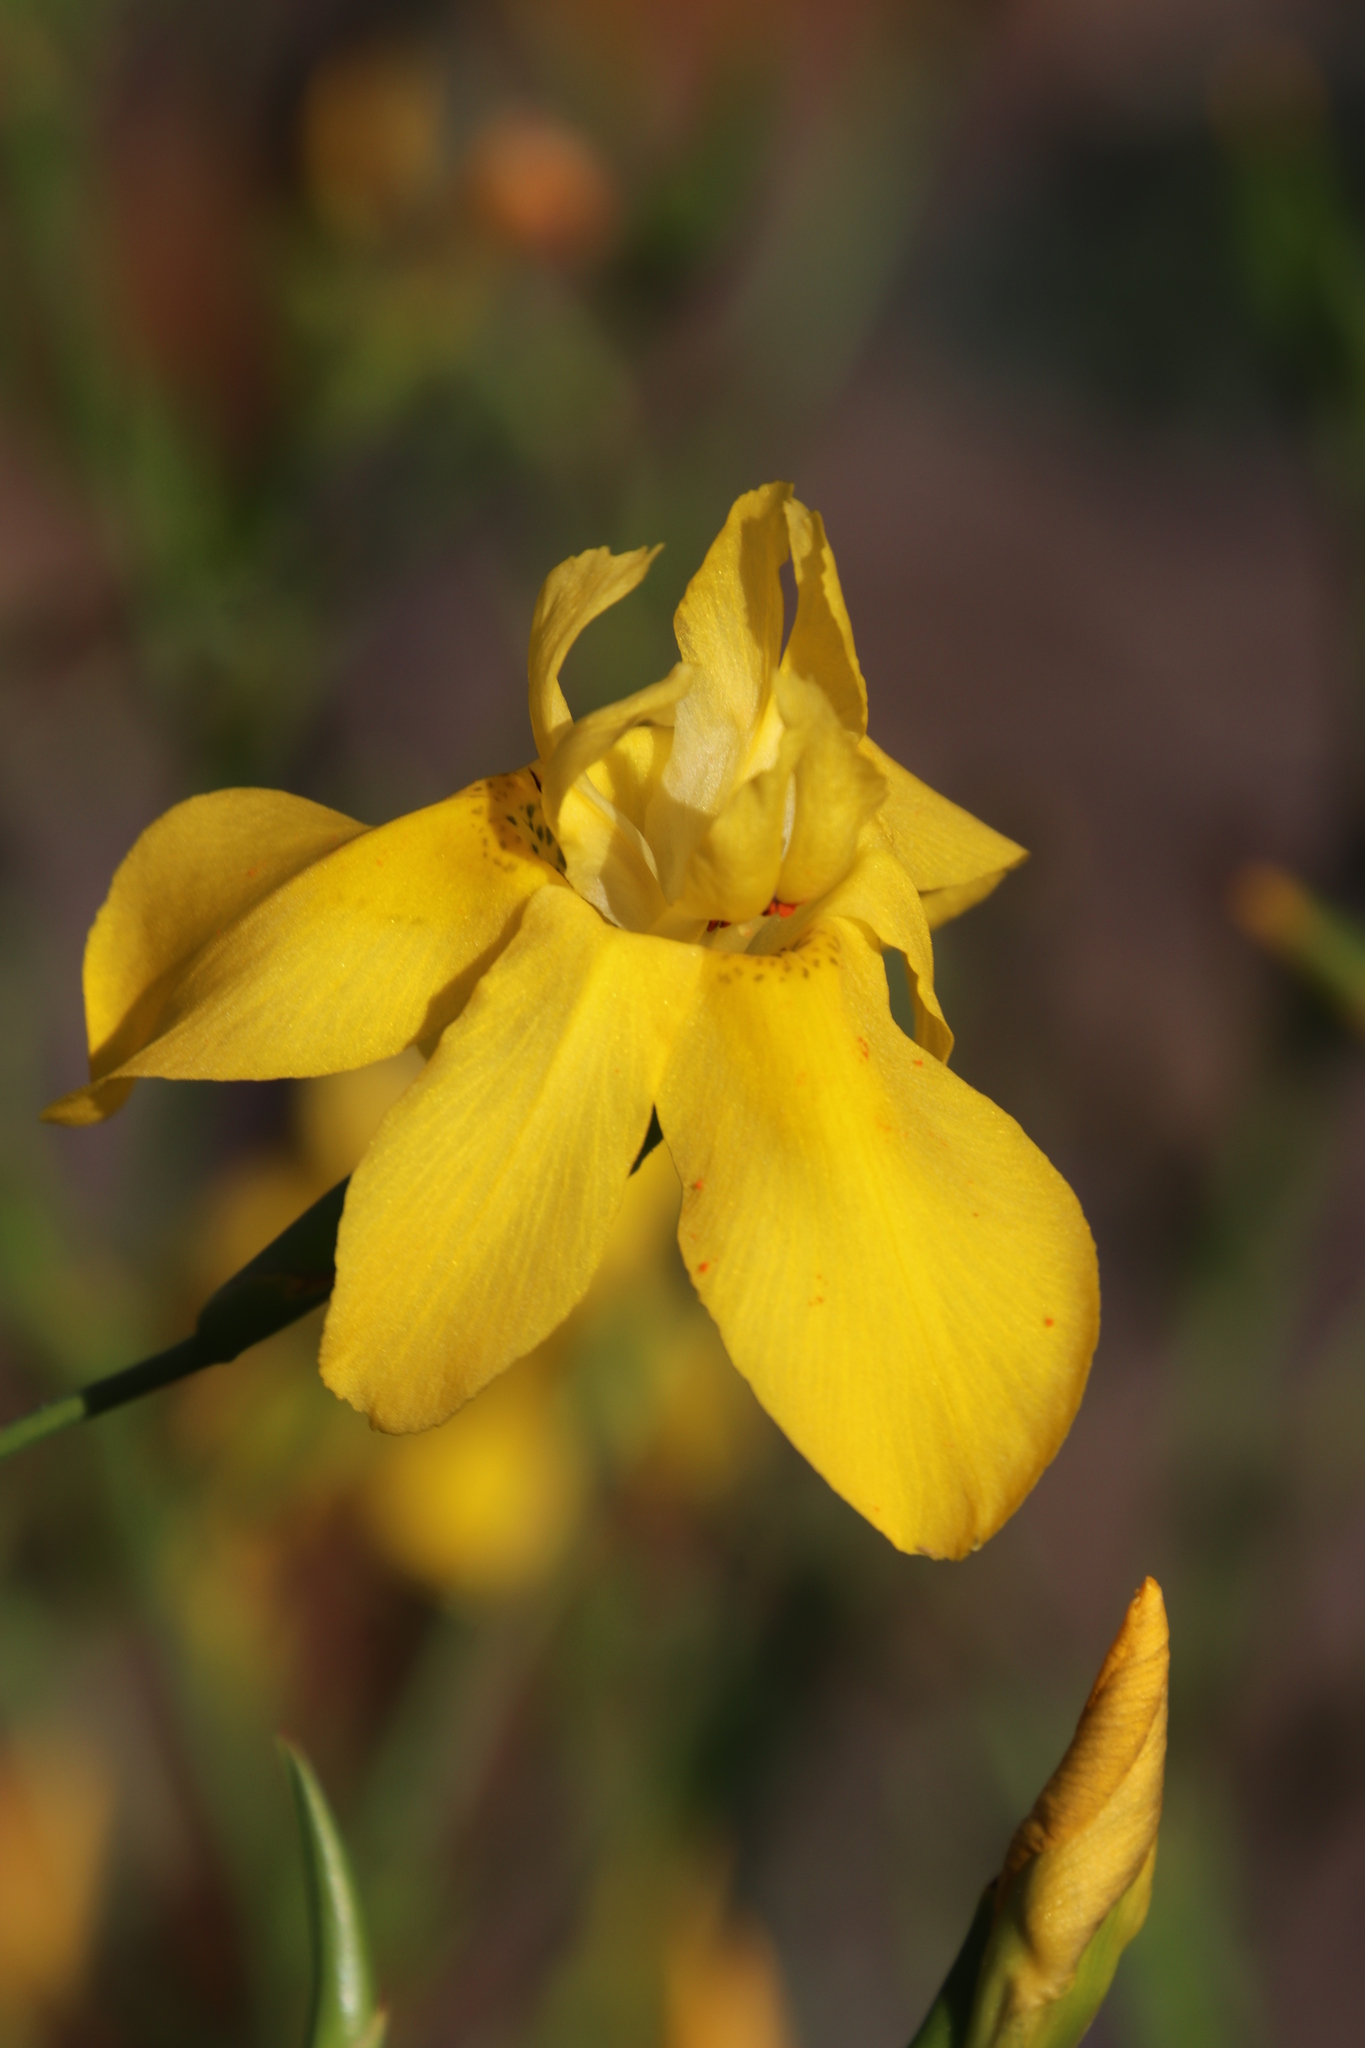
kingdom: Plantae
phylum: Tracheophyta
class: Liliopsida
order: Asparagales
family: Iridaceae
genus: Moraea
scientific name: Moraea ramosissima
